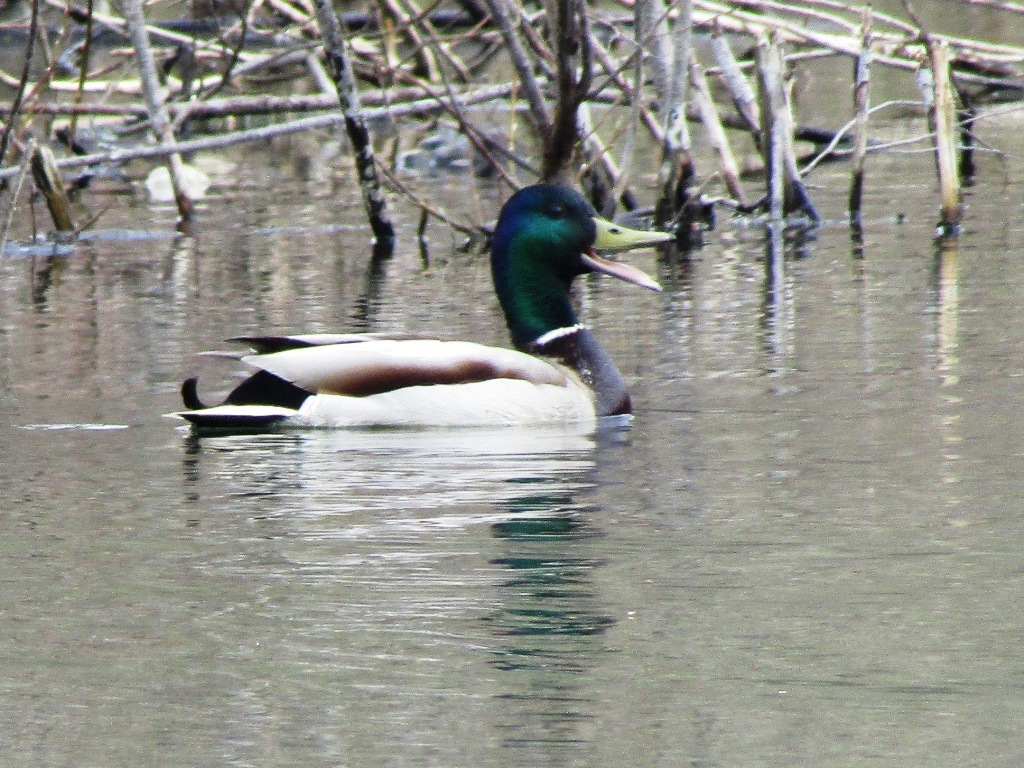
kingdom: Animalia
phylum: Chordata
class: Aves
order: Anseriformes
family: Anatidae
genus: Anas
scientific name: Anas platyrhynchos
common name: Mallard
